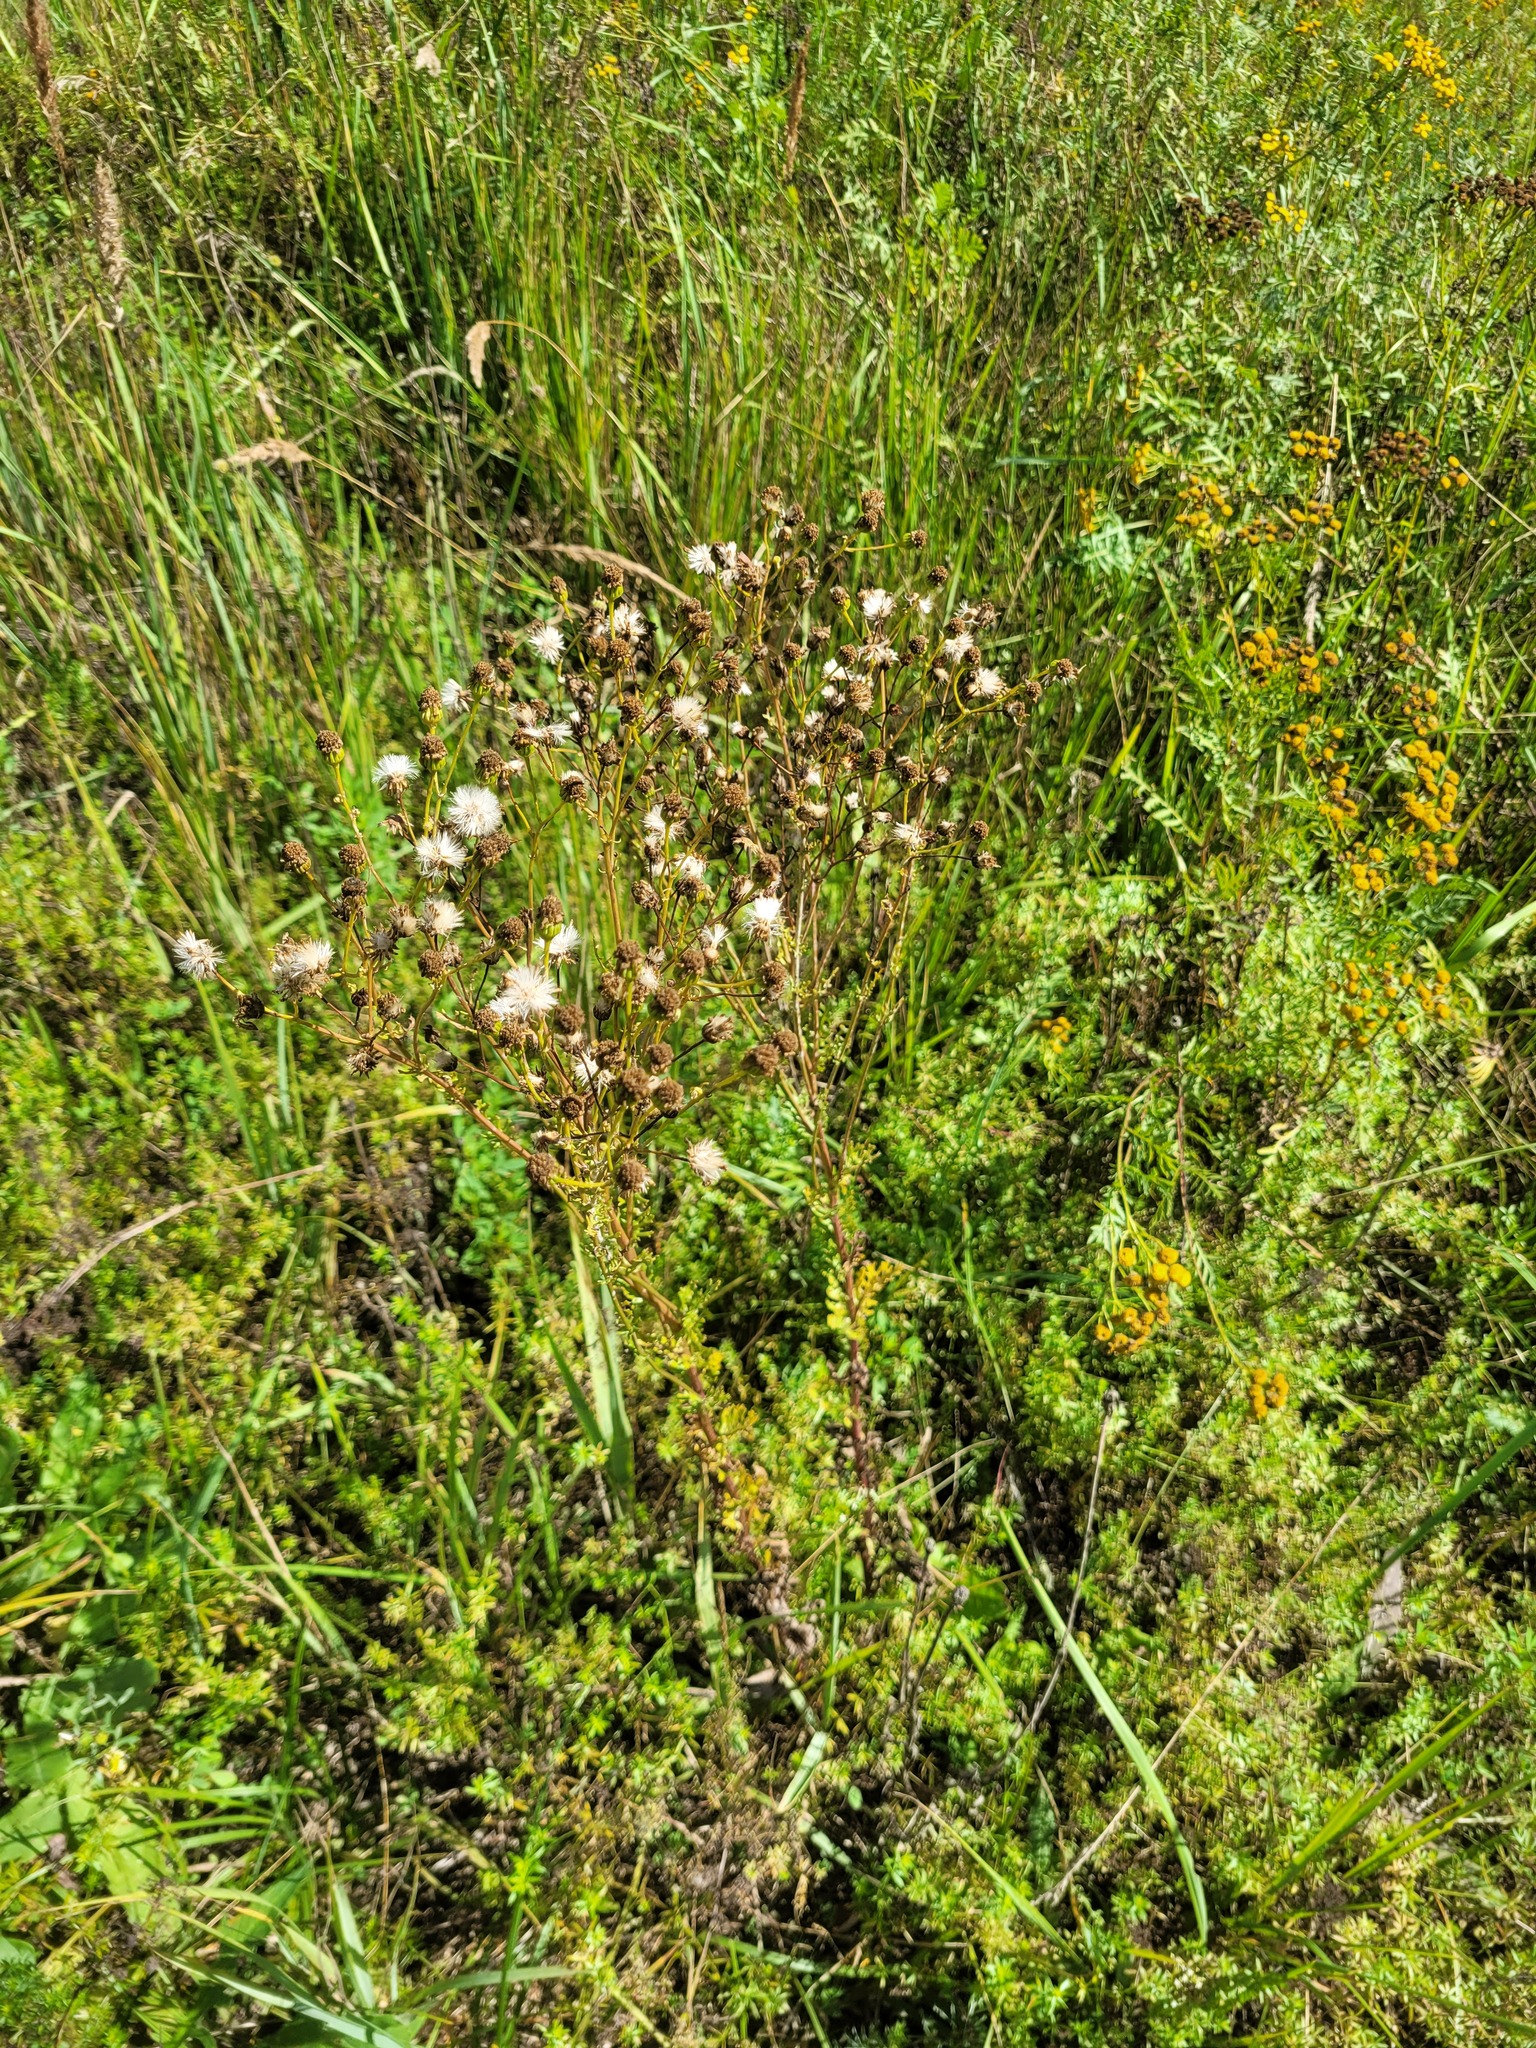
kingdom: Plantae
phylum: Tracheophyta
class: Magnoliopsida
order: Asterales
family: Asteraceae
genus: Jacobaea
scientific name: Jacobaea vulgaris
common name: Stinking willie
